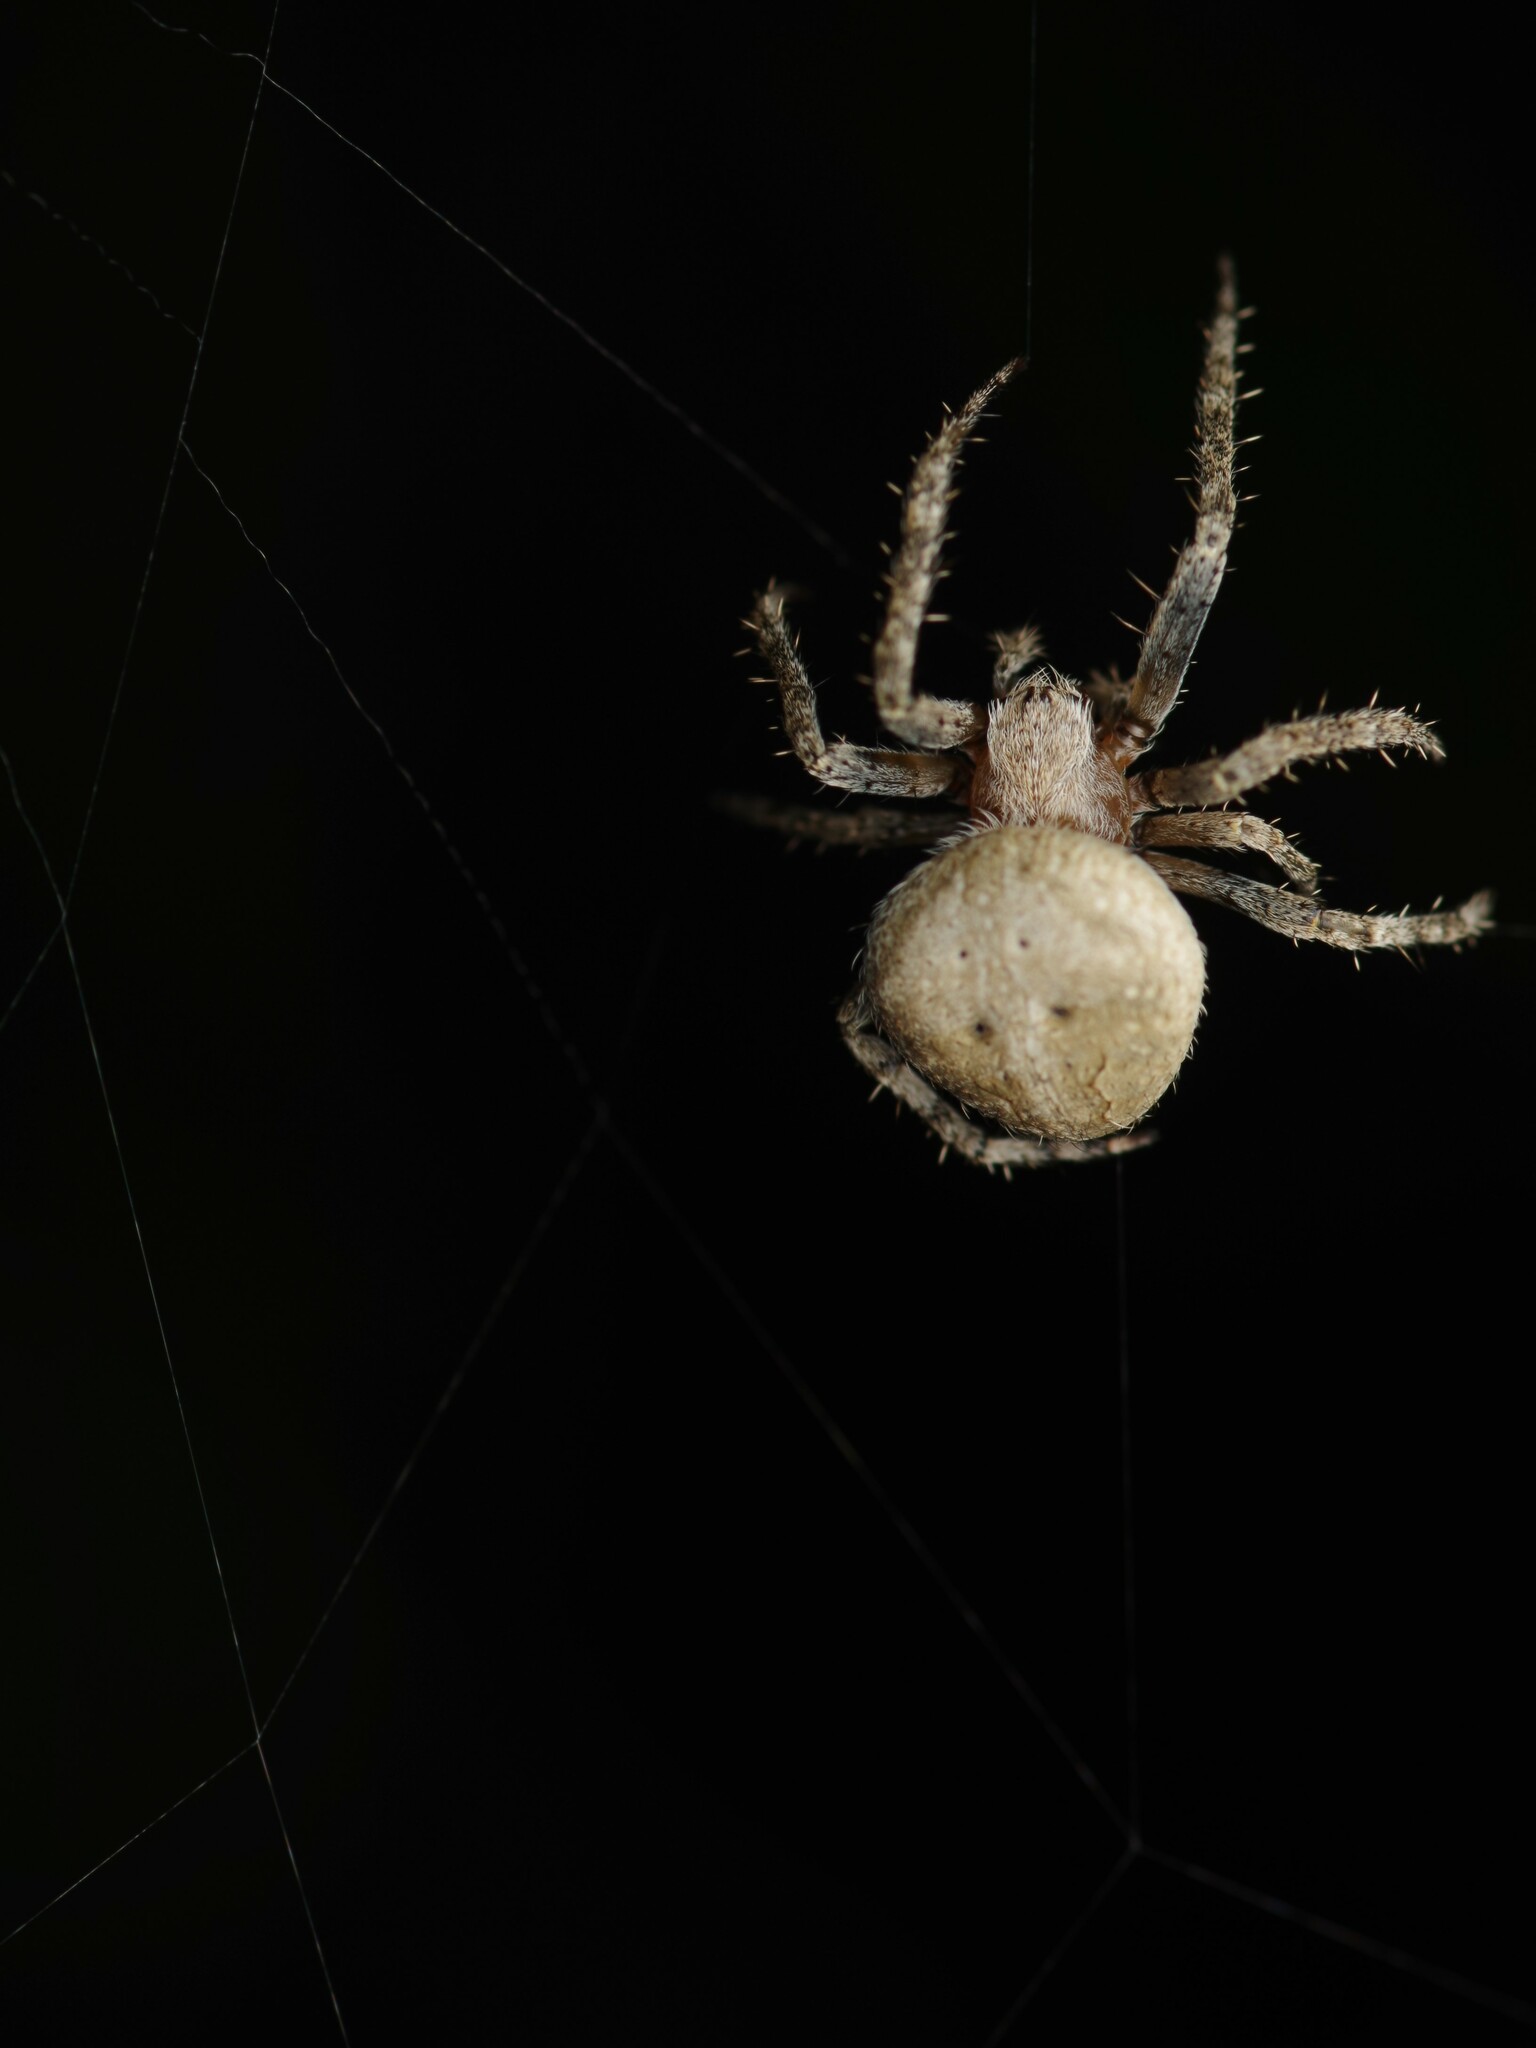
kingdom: Animalia
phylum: Arthropoda
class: Arachnida
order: Araneae
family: Araneidae
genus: Neoscona
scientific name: Neoscona subfusca
